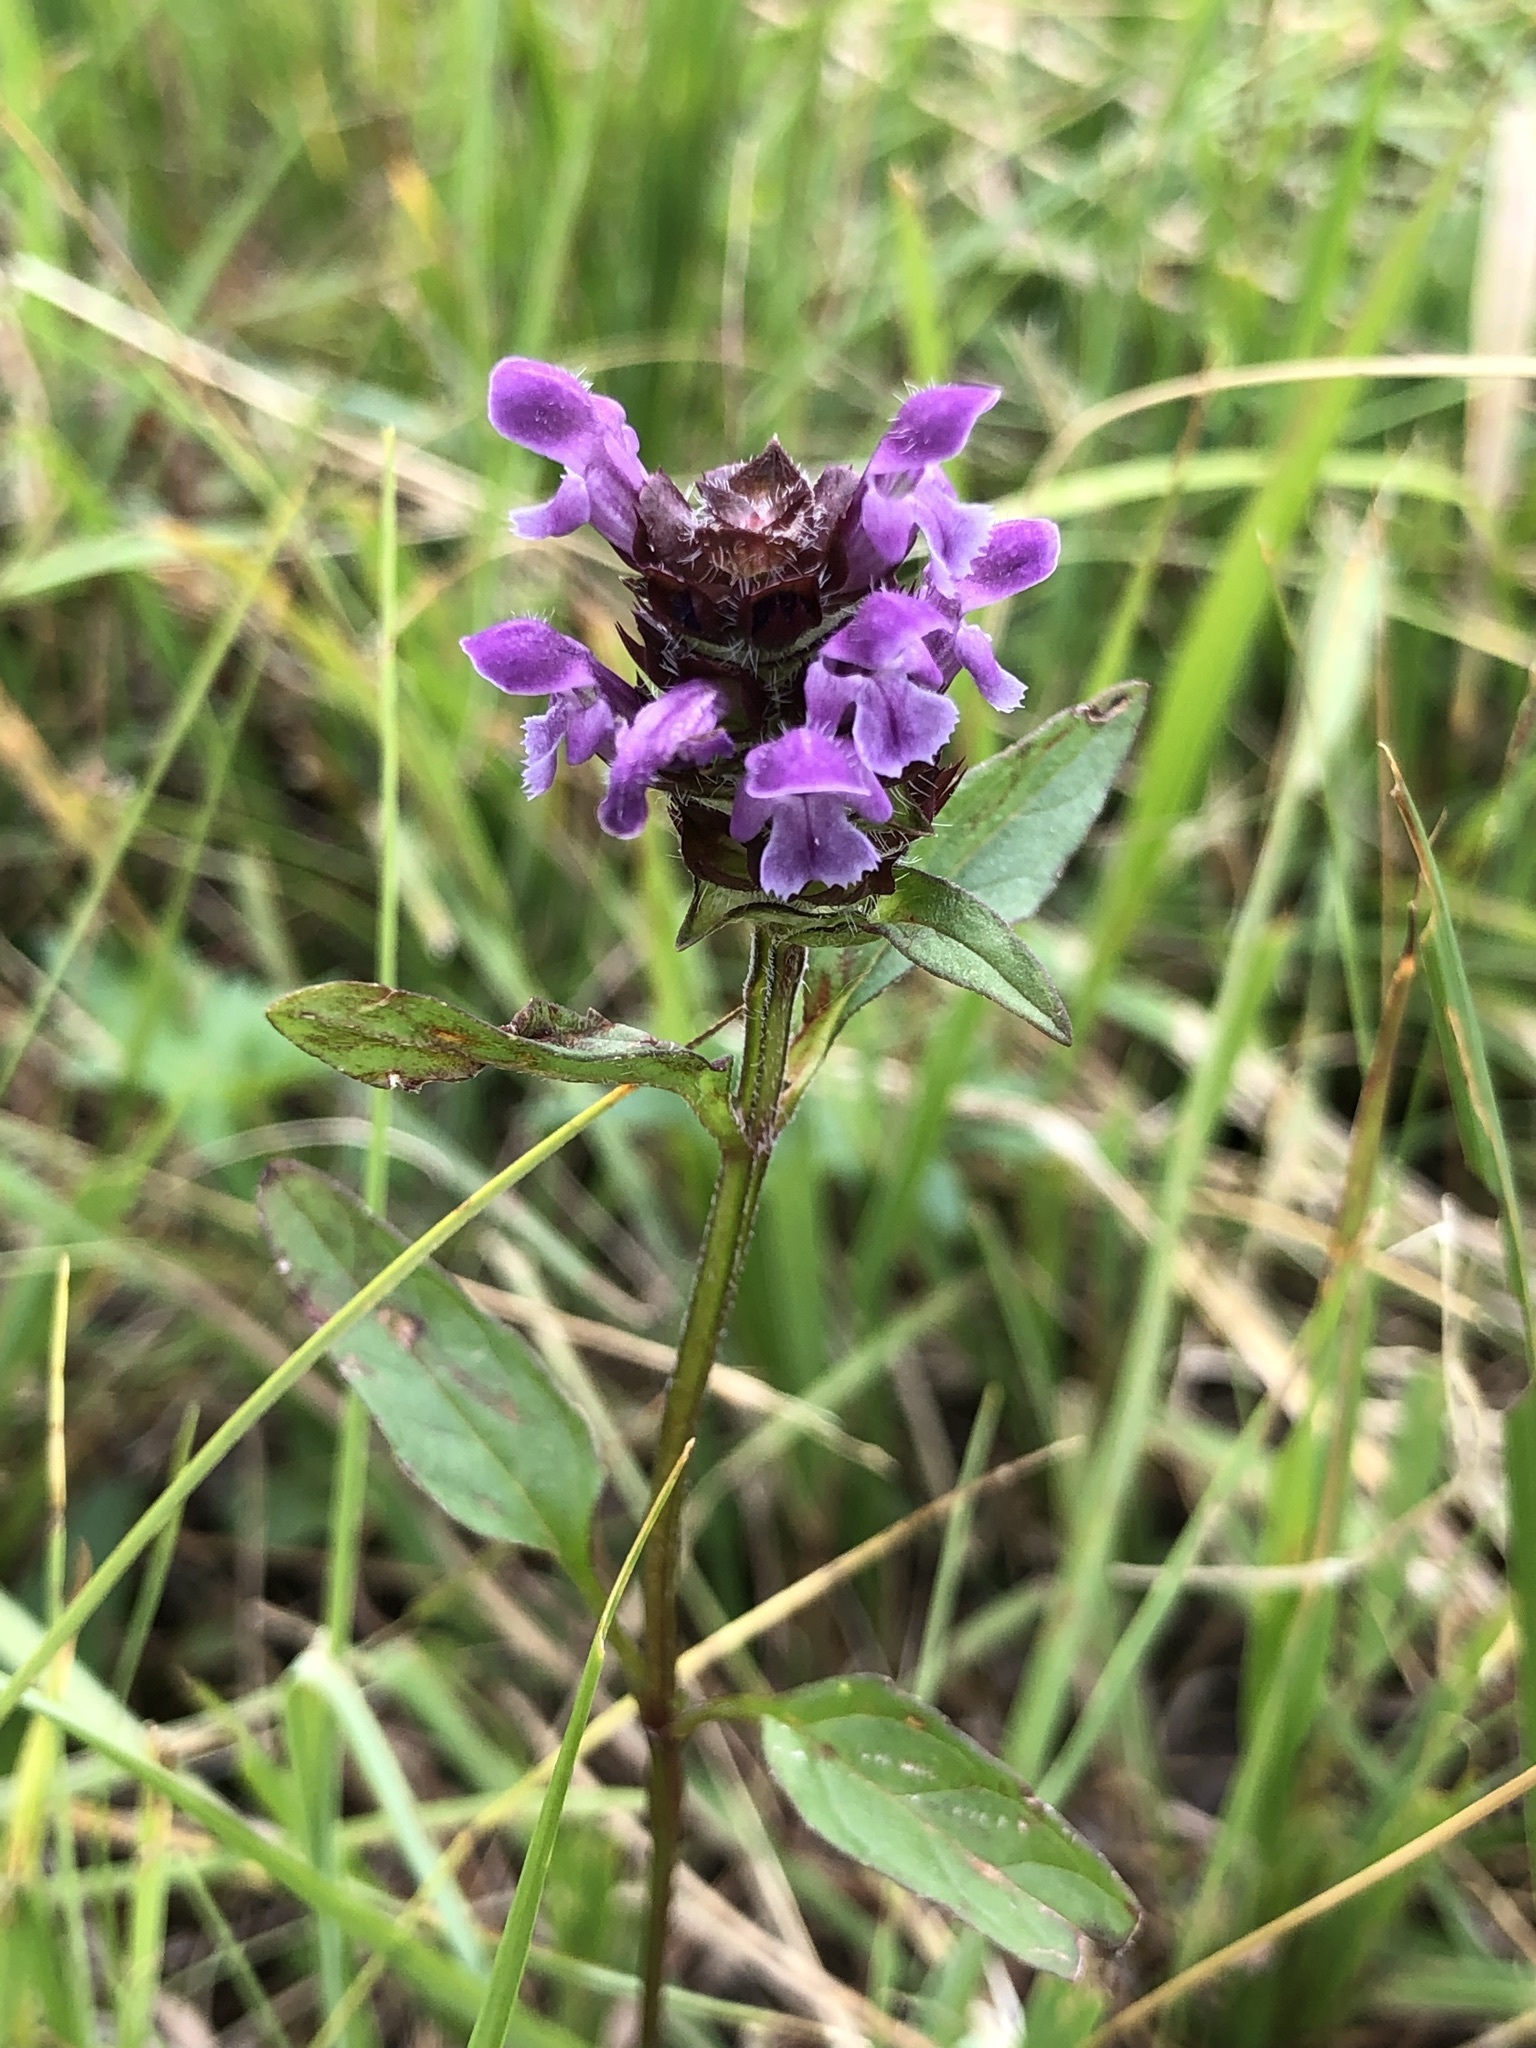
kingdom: Plantae
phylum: Tracheophyta
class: Magnoliopsida
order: Lamiales
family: Lamiaceae
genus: Prunella
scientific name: Prunella vulgaris
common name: Heal-all
